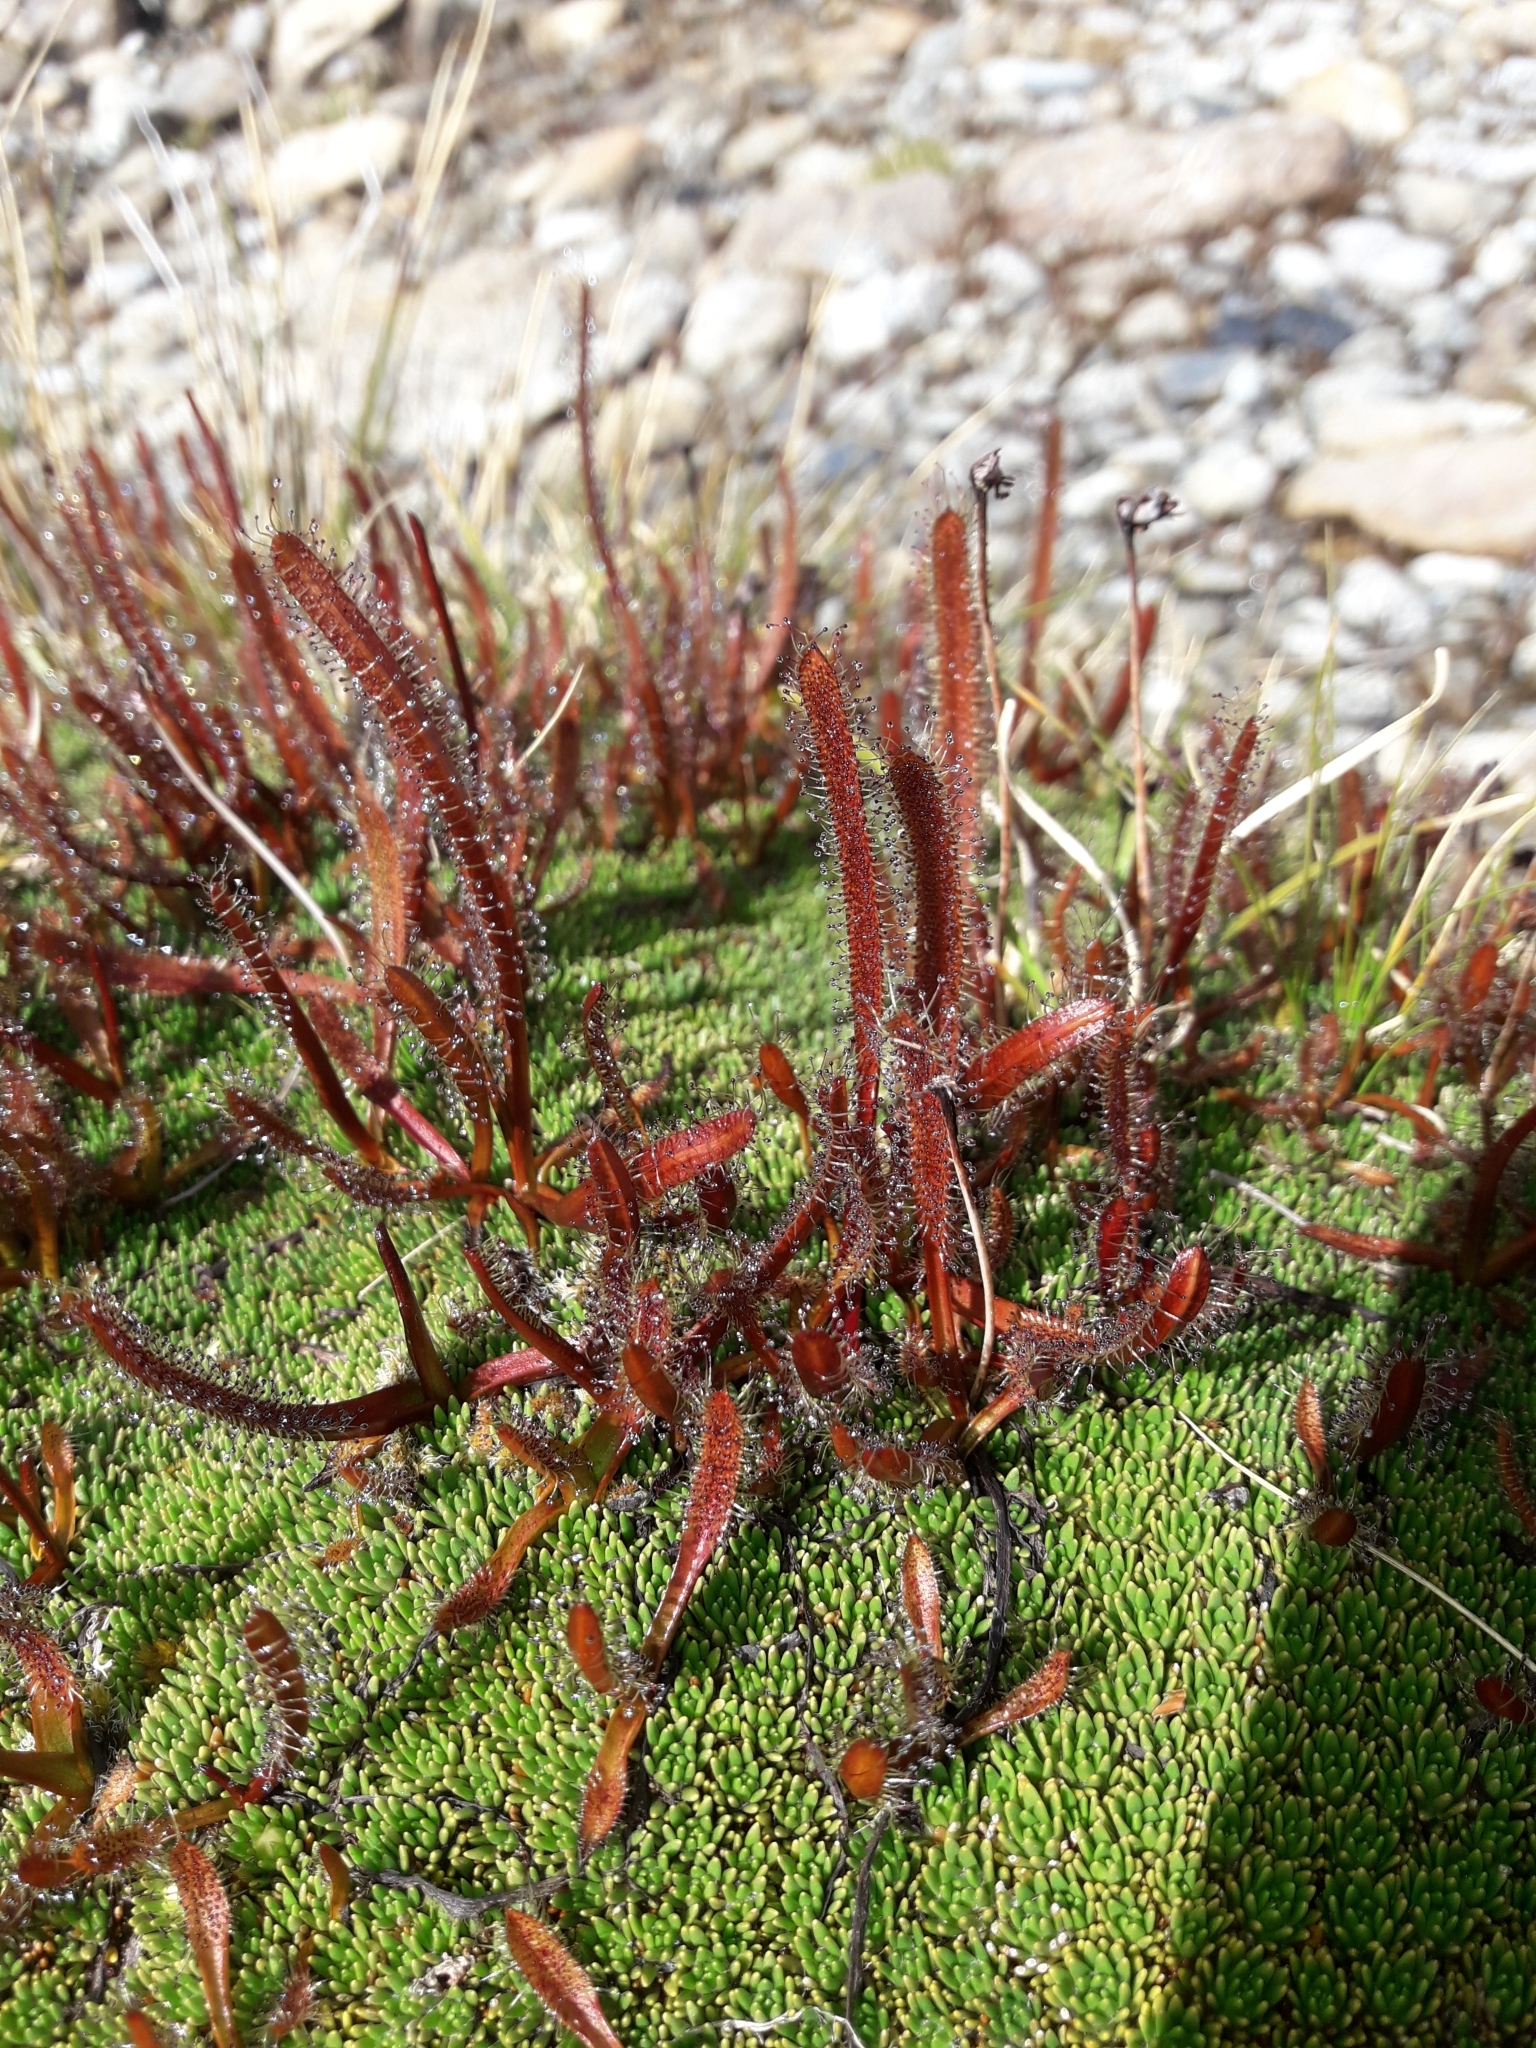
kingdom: Plantae
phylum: Tracheophyta
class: Magnoliopsida
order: Caryophyllales
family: Droseraceae
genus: Drosera
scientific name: Drosera arcturi
